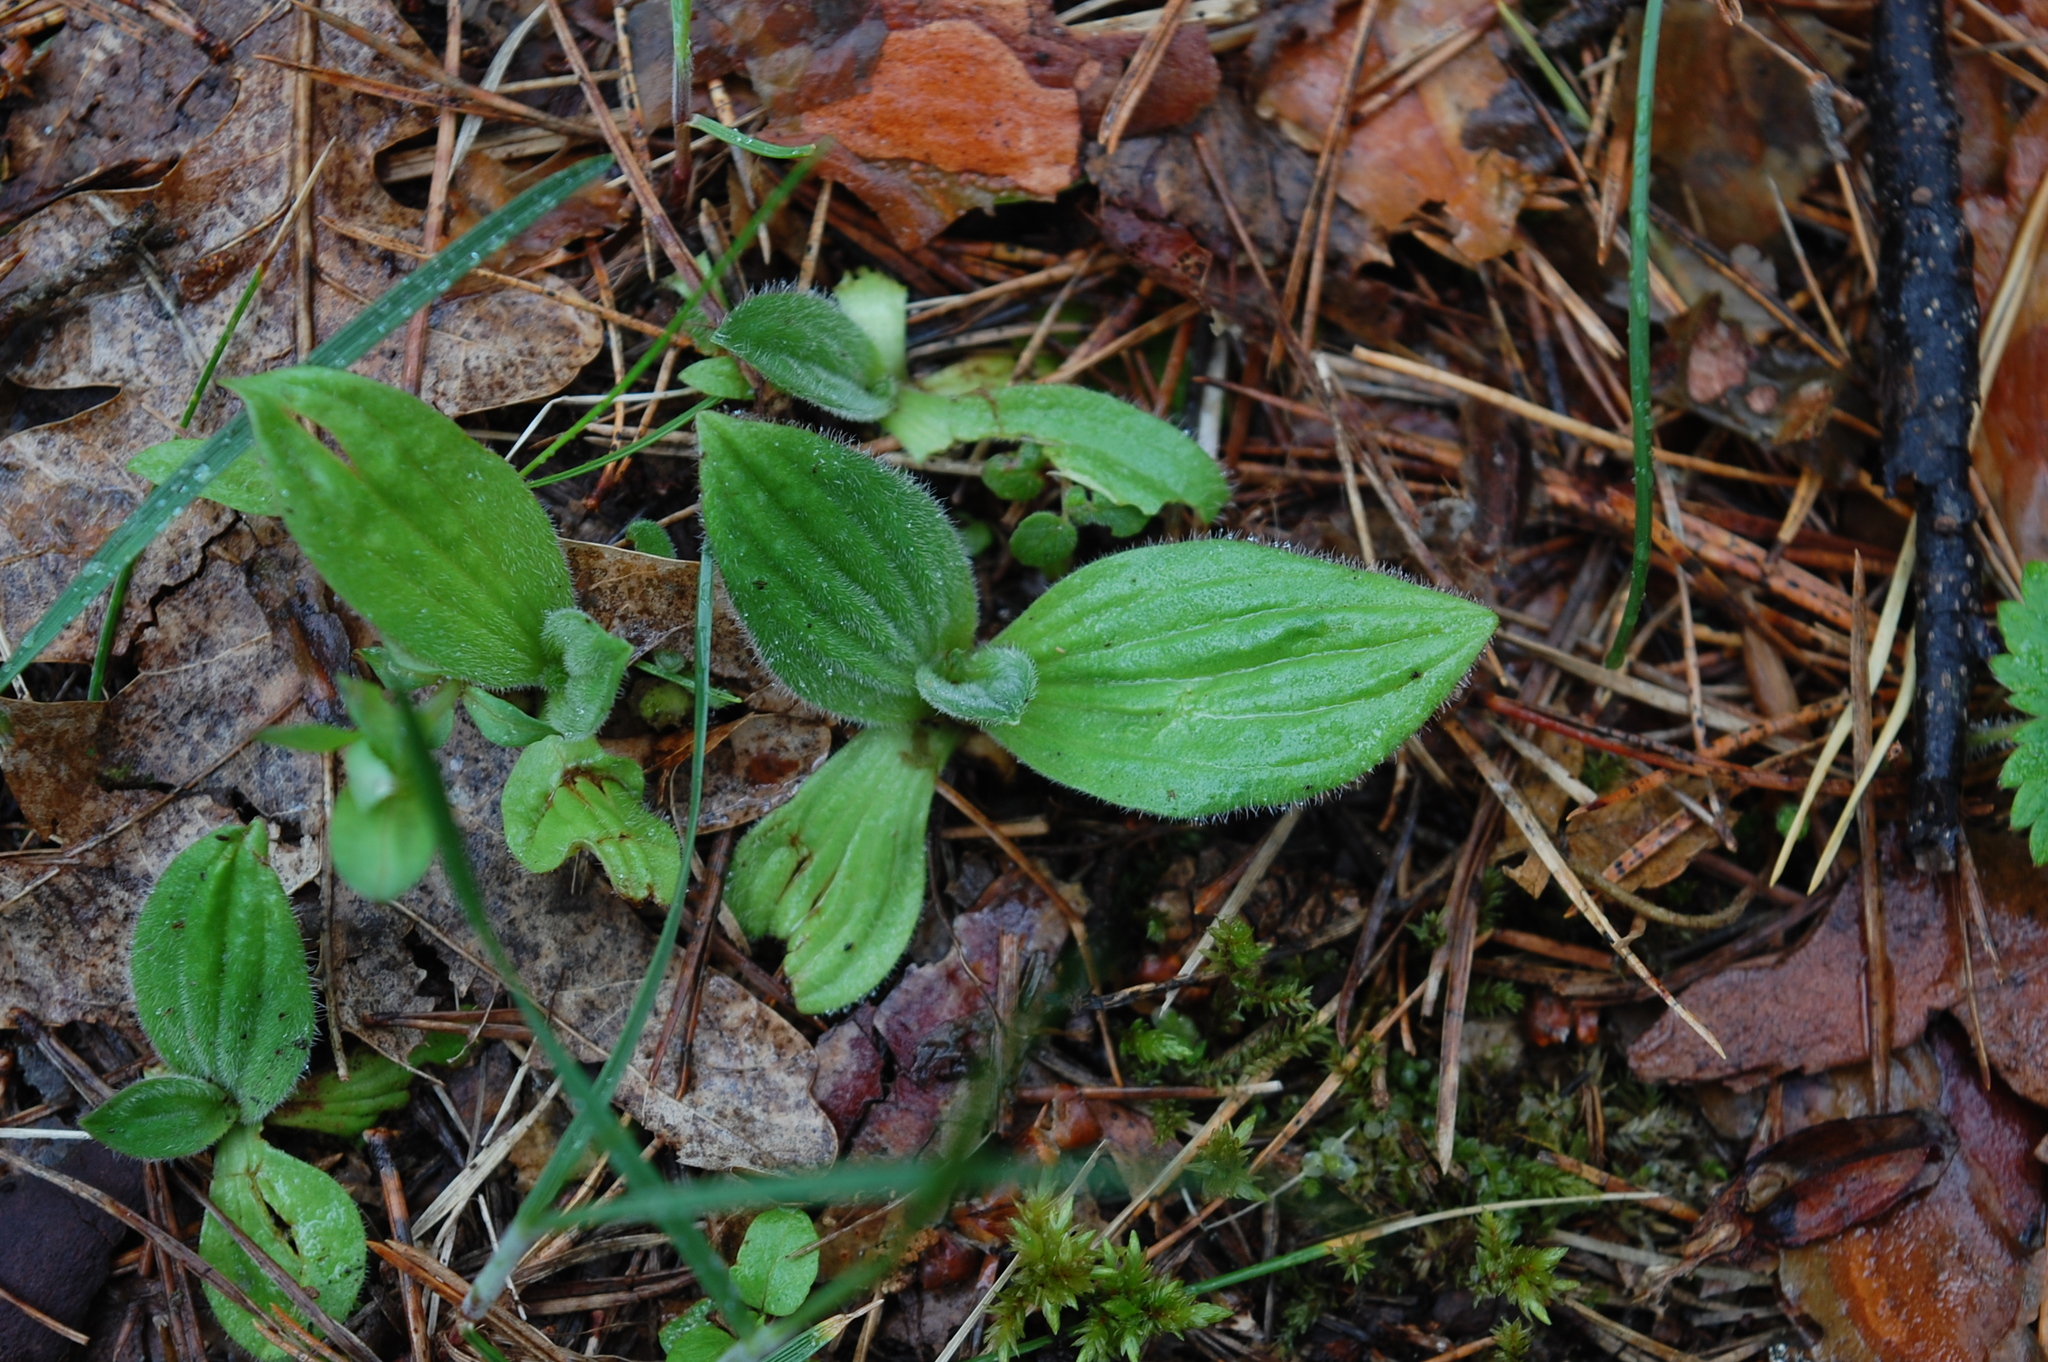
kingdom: Plantae
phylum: Tracheophyta
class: Magnoliopsida
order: Lamiales
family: Plantaginaceae
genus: Plantago
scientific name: Plantago media
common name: Hoary plantain
